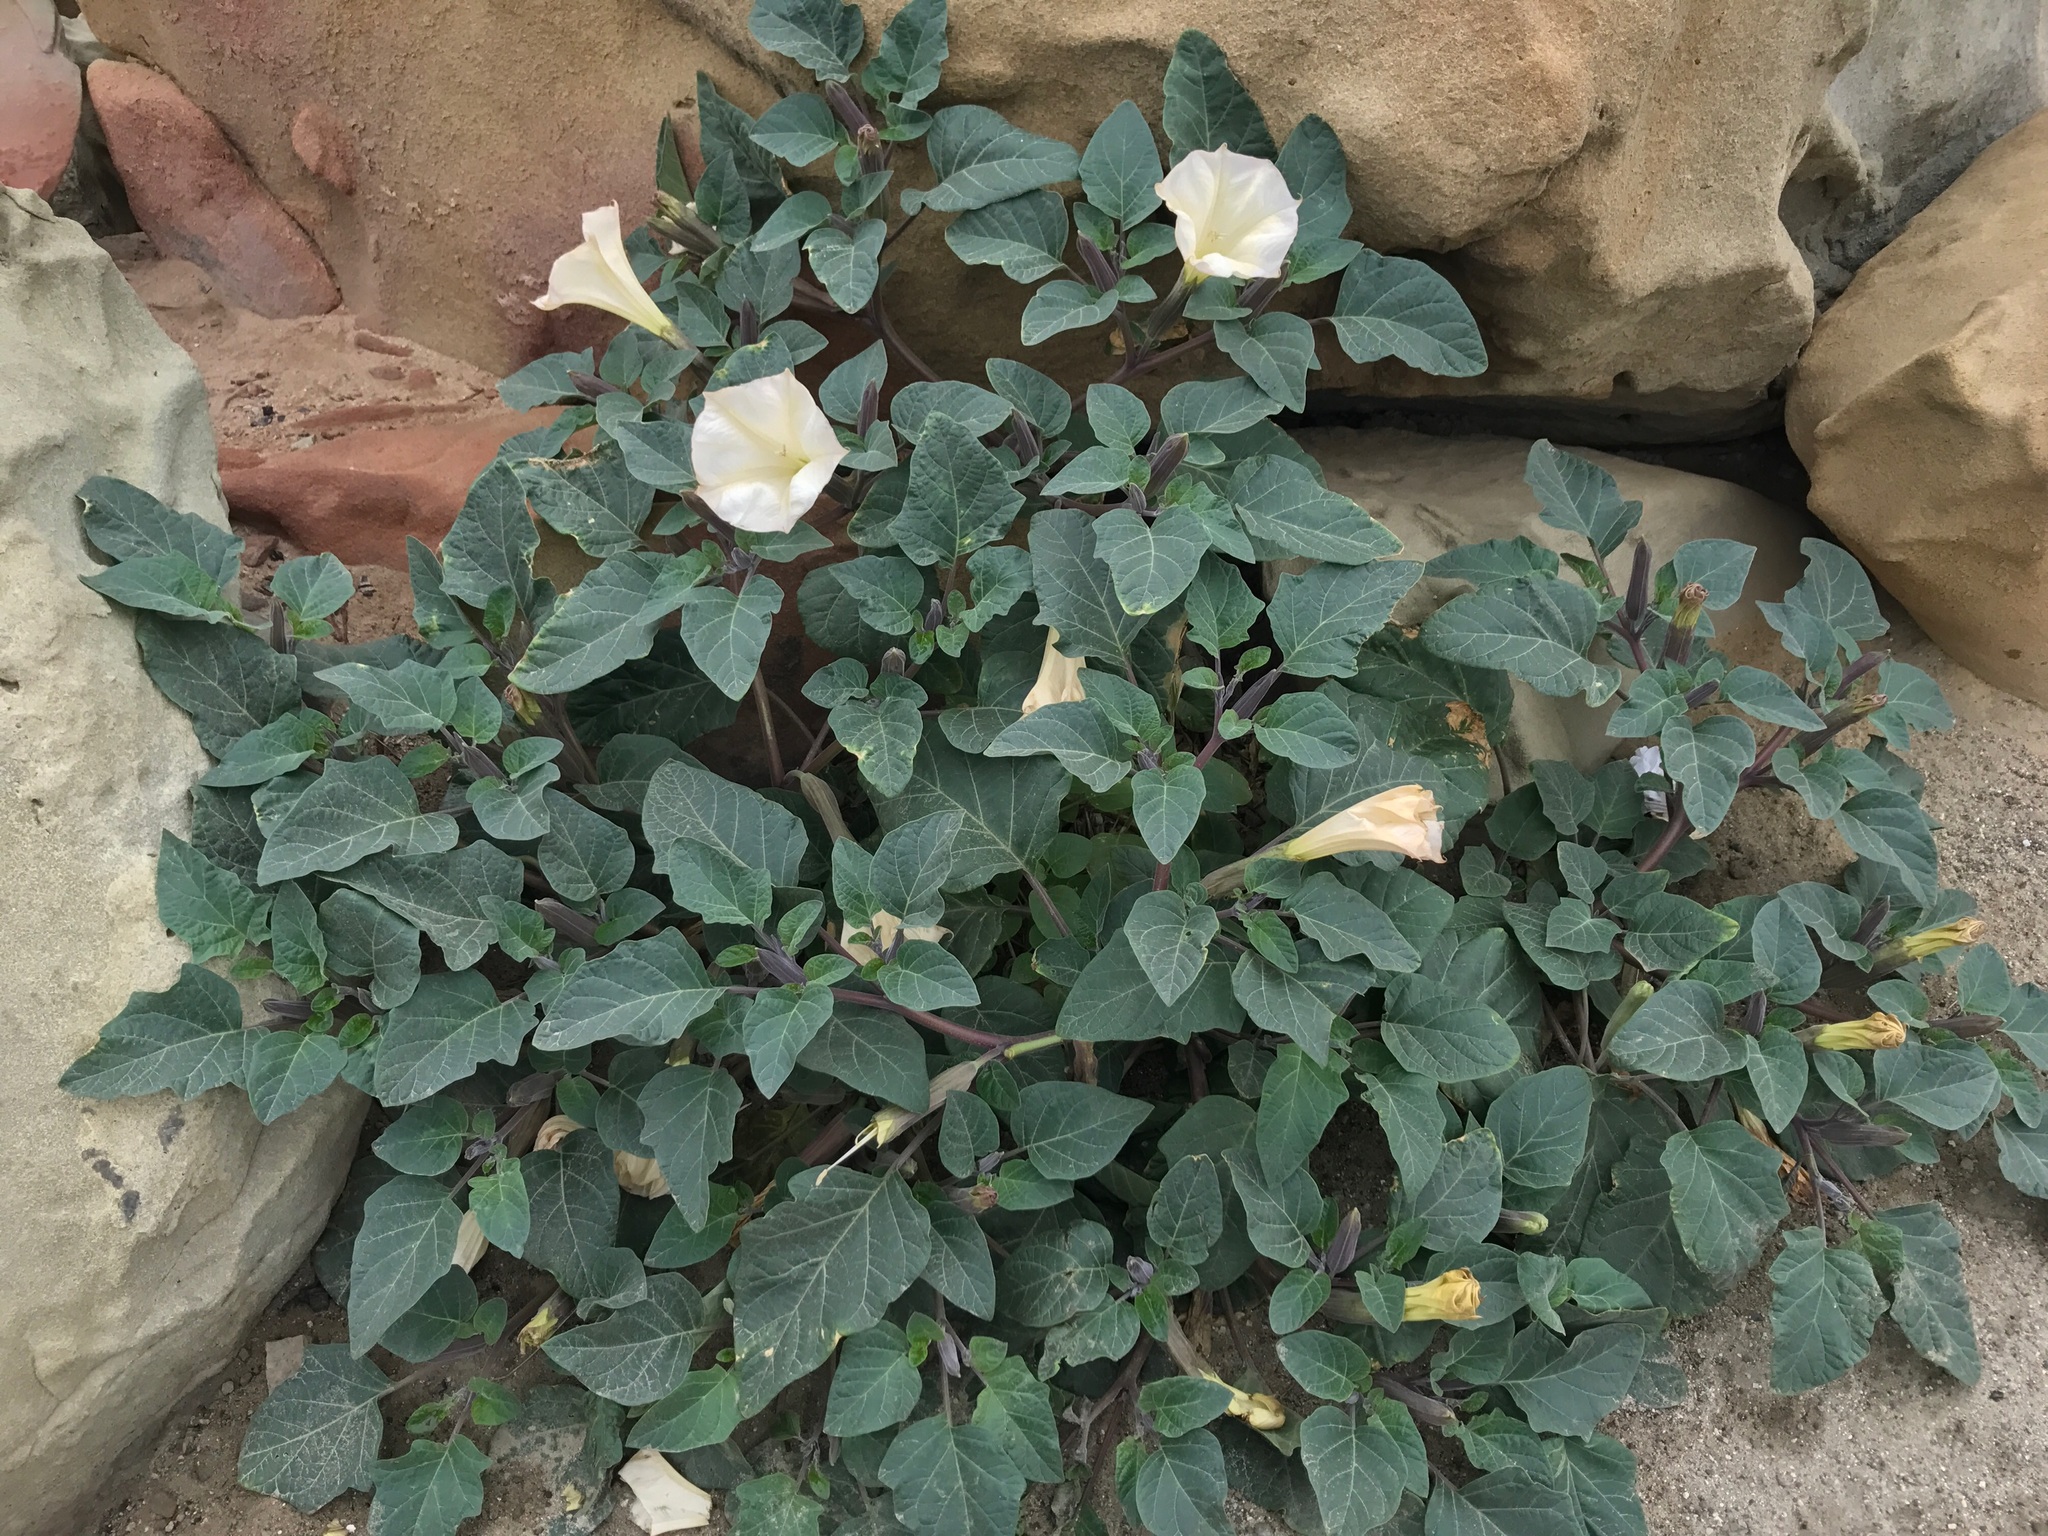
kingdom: Plantae
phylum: Tracheophyta
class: Magnoliopsida
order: Solanales
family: Solanaceae
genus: Datura
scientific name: Datura wrightii
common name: Sacred thorn-apple
